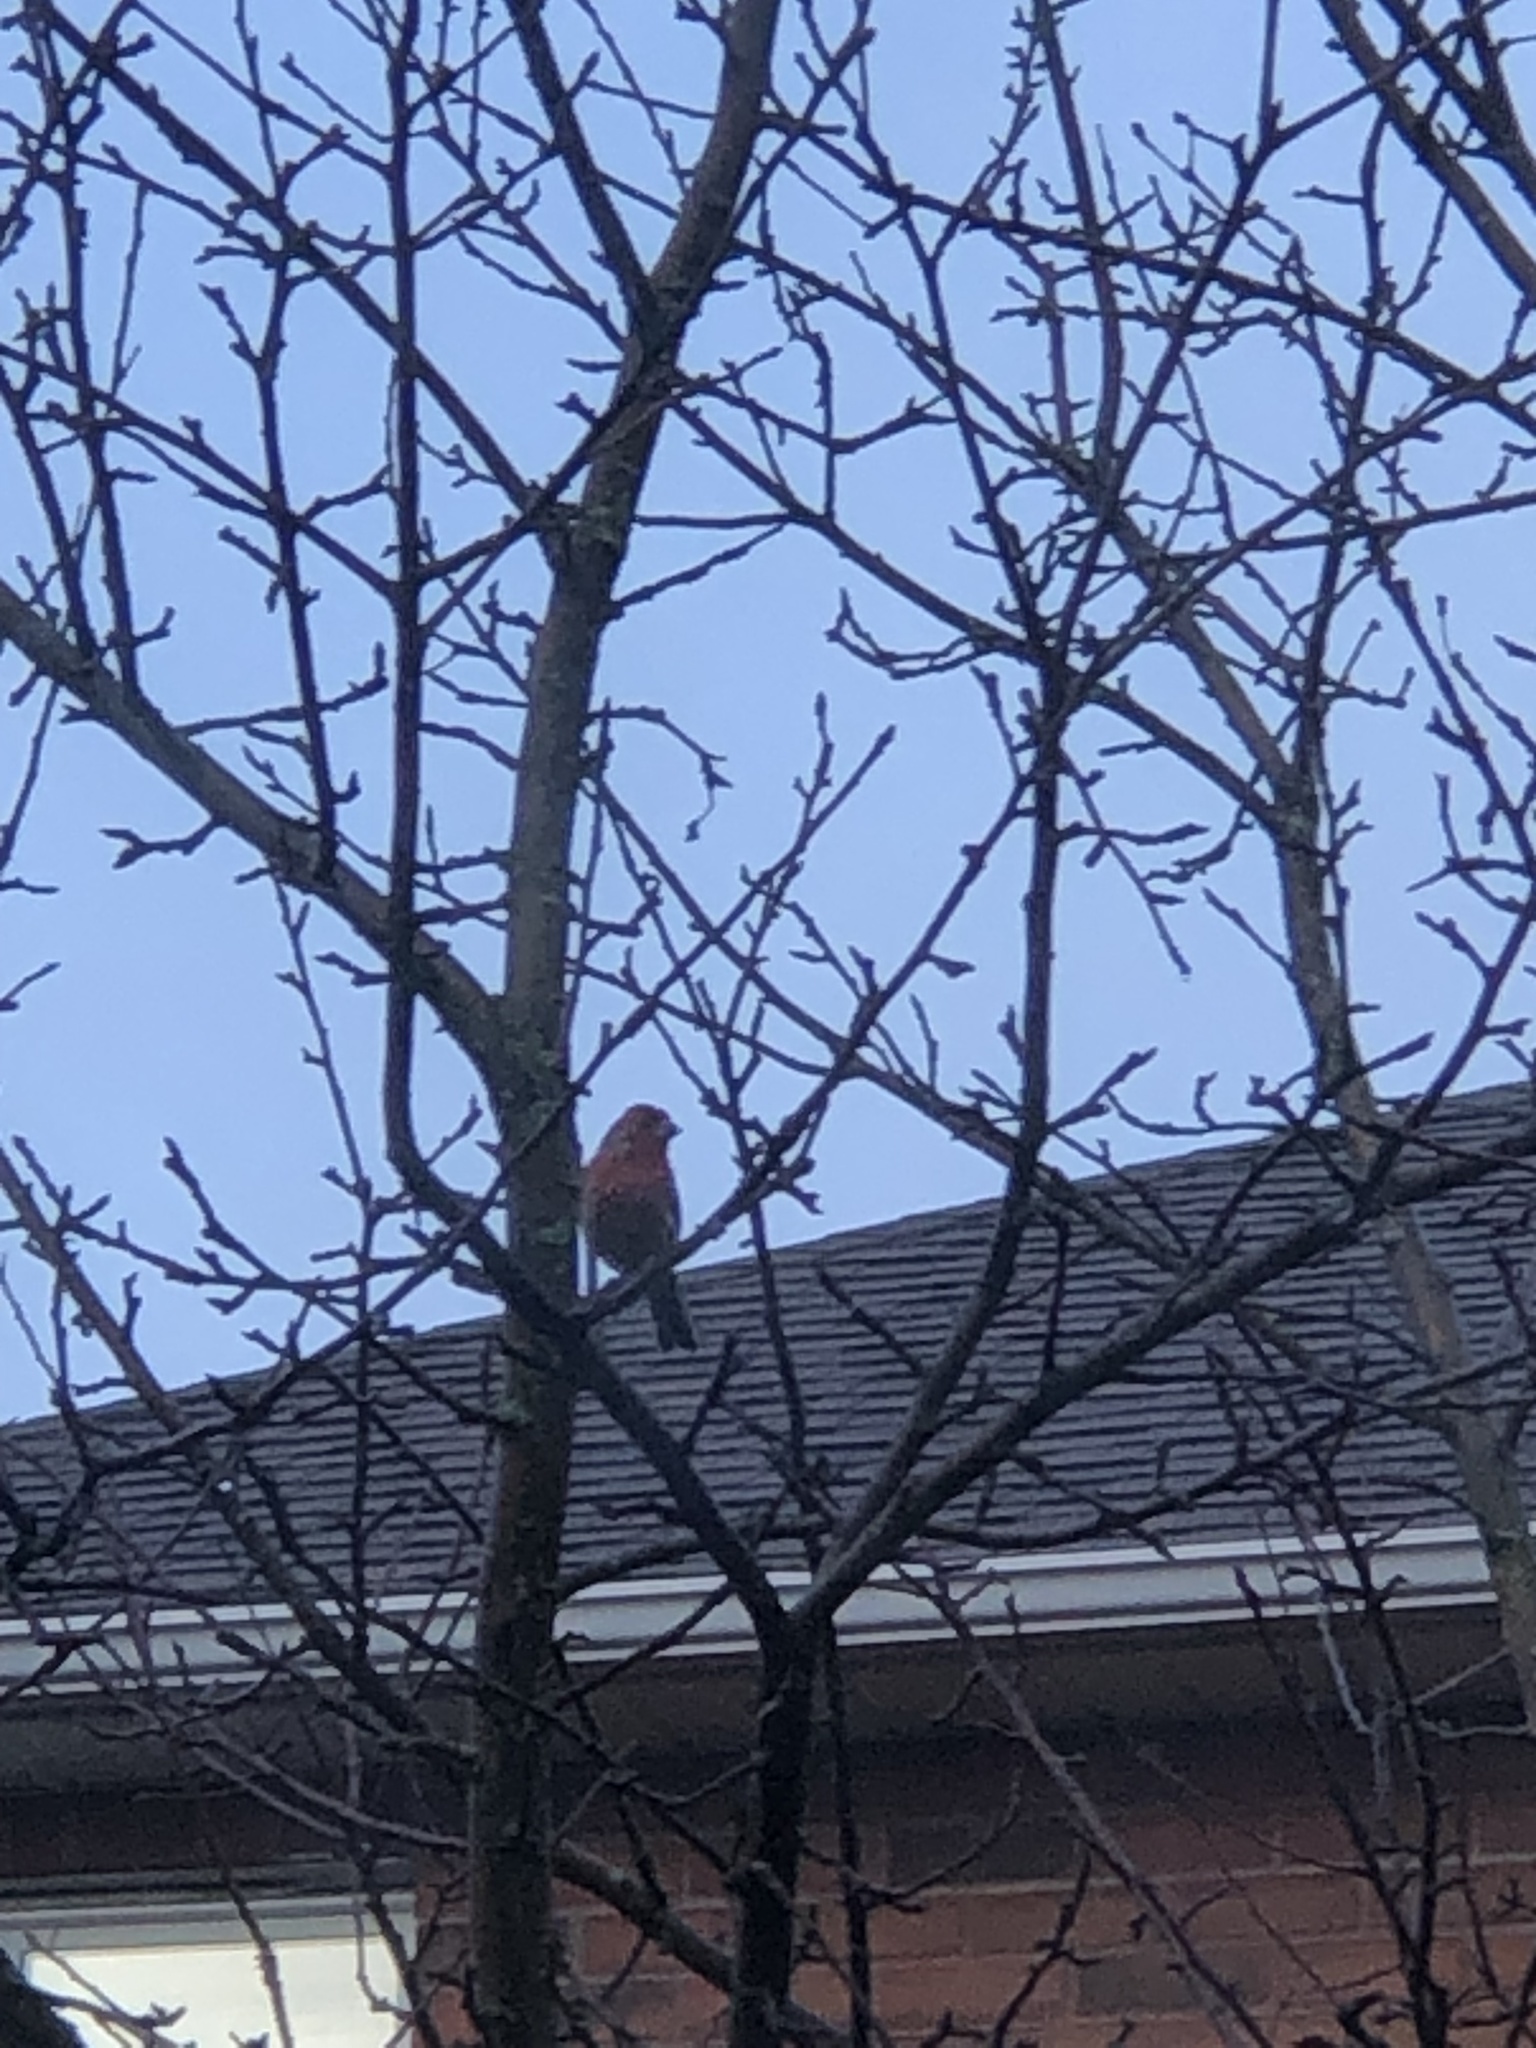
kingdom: Animalia
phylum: Chordata
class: Aves
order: Passeriformes
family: Fringillidae
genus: Haemorhous
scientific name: Haemorhous mexicanus
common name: House finch
